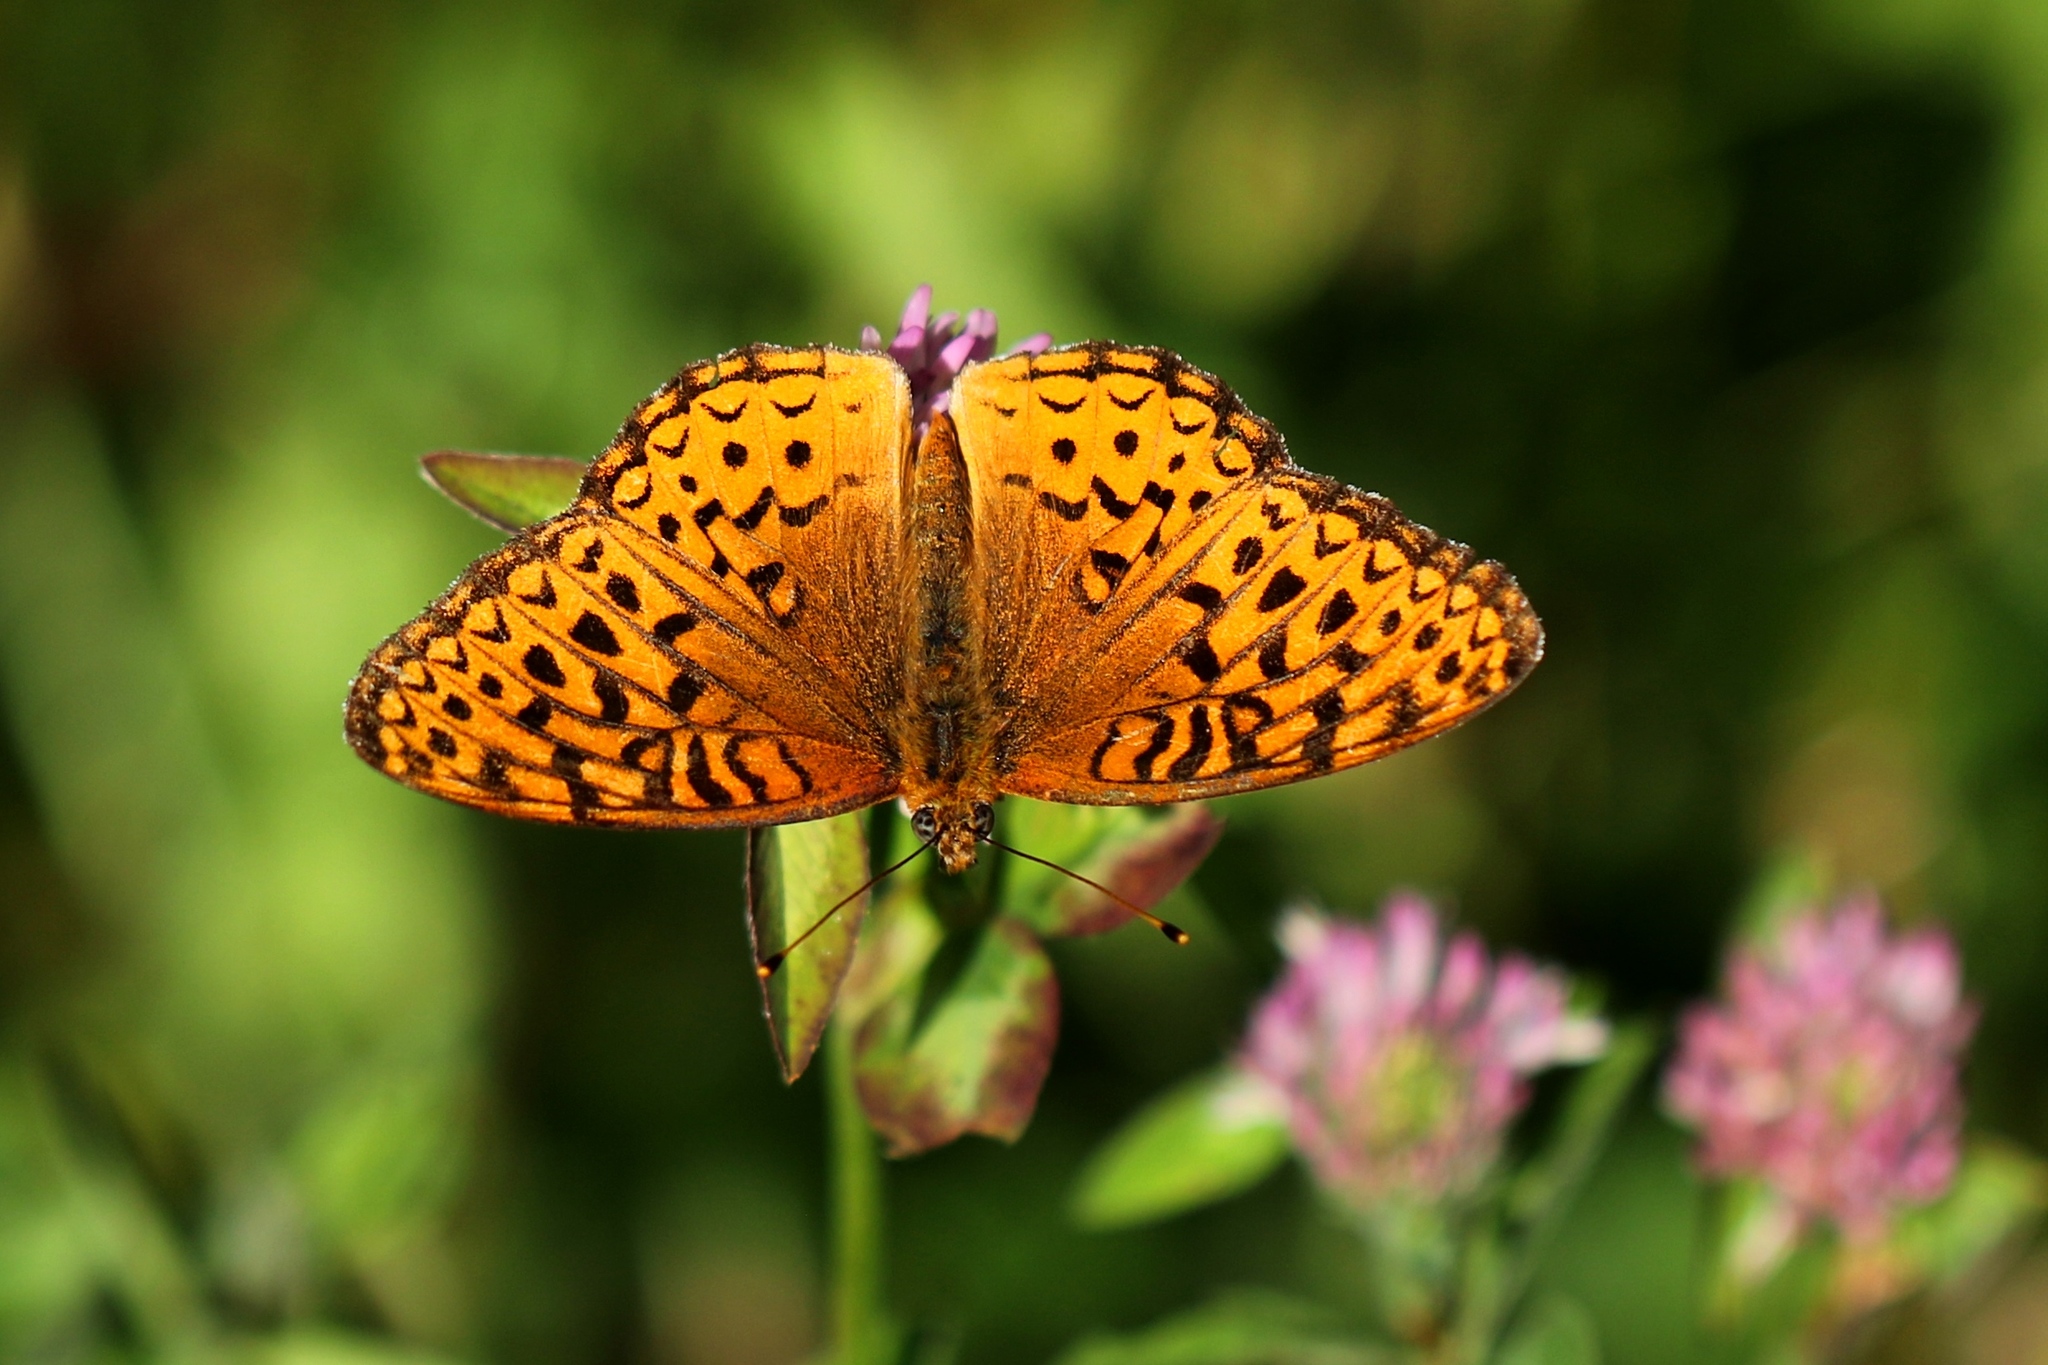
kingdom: Animalia
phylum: Arthropoda
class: Insecta
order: Lepidoptera
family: Nymphalidae
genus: Speyeria
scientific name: Speyeria atlantis
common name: Atlantis fritillary
